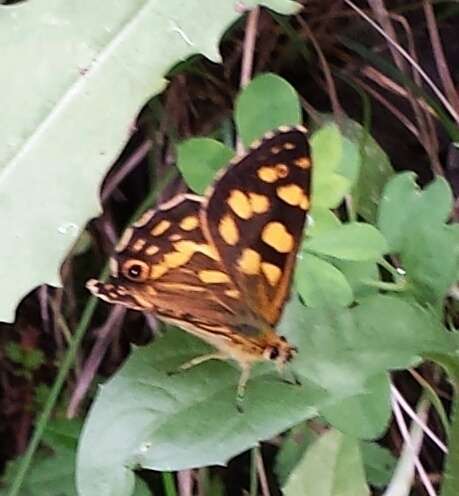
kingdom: Animalia
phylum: Arthropoda
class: Insecta
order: Lepidoptera
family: Nymphalidae
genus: Oreixenica
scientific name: Oreixenica kershawi
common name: Striped xenica
